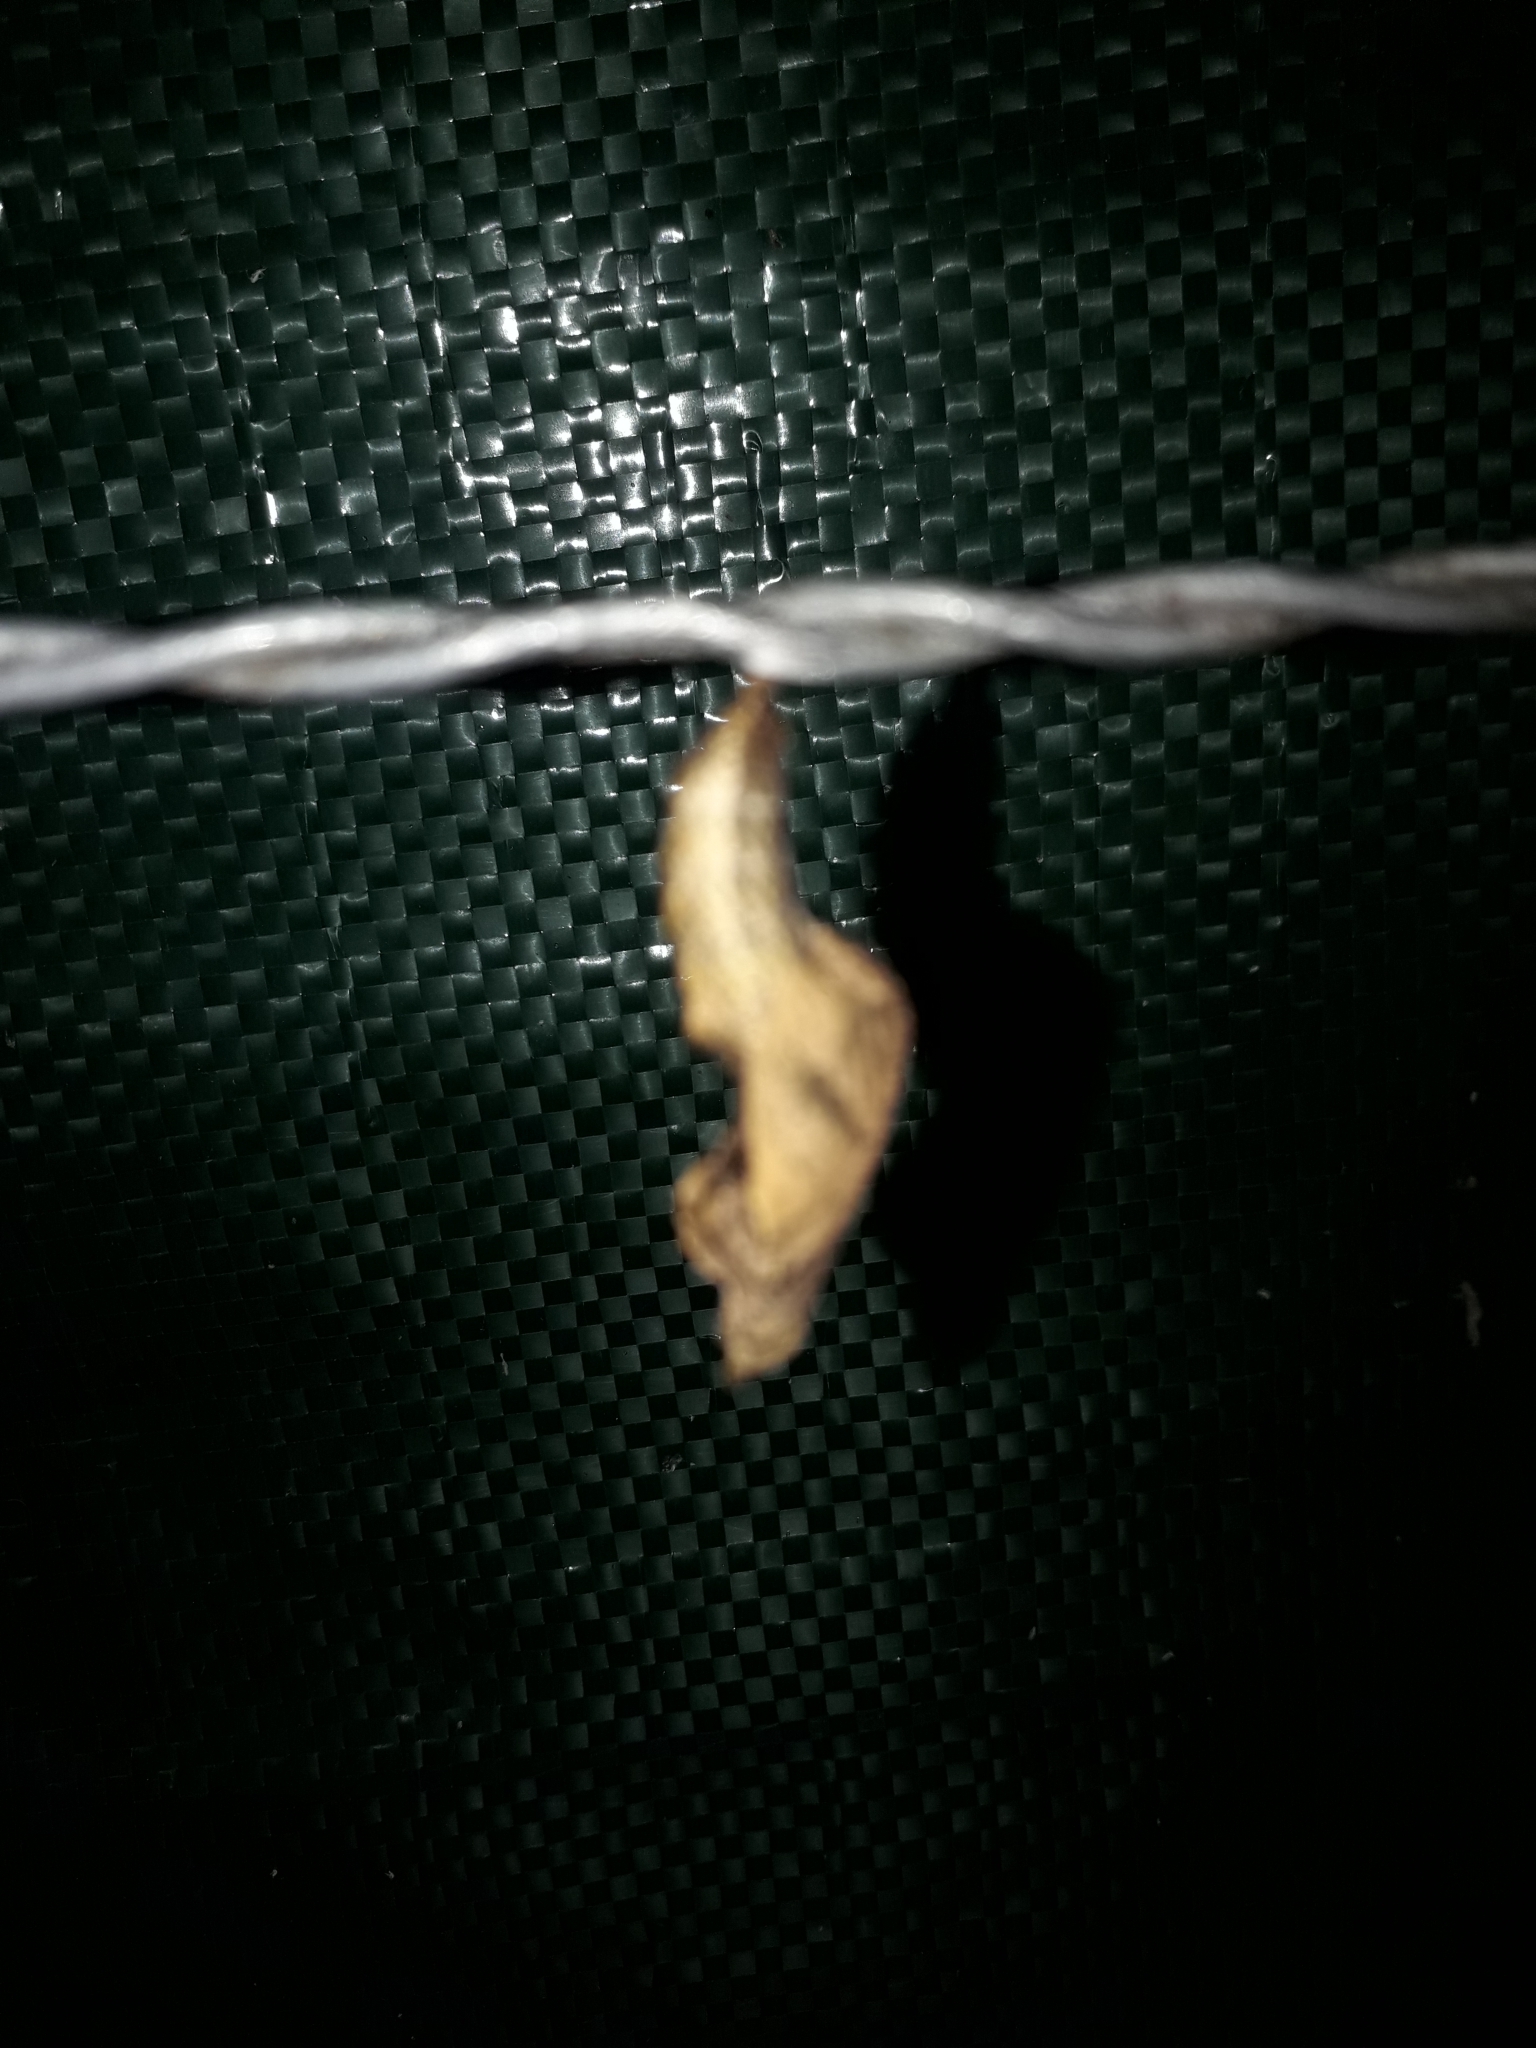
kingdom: Animalia
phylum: Arthropoda
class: Insecta
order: Lepidoptera
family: Nymphalidae
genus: Dione
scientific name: Dione vanillae
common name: Gulf fritillary
